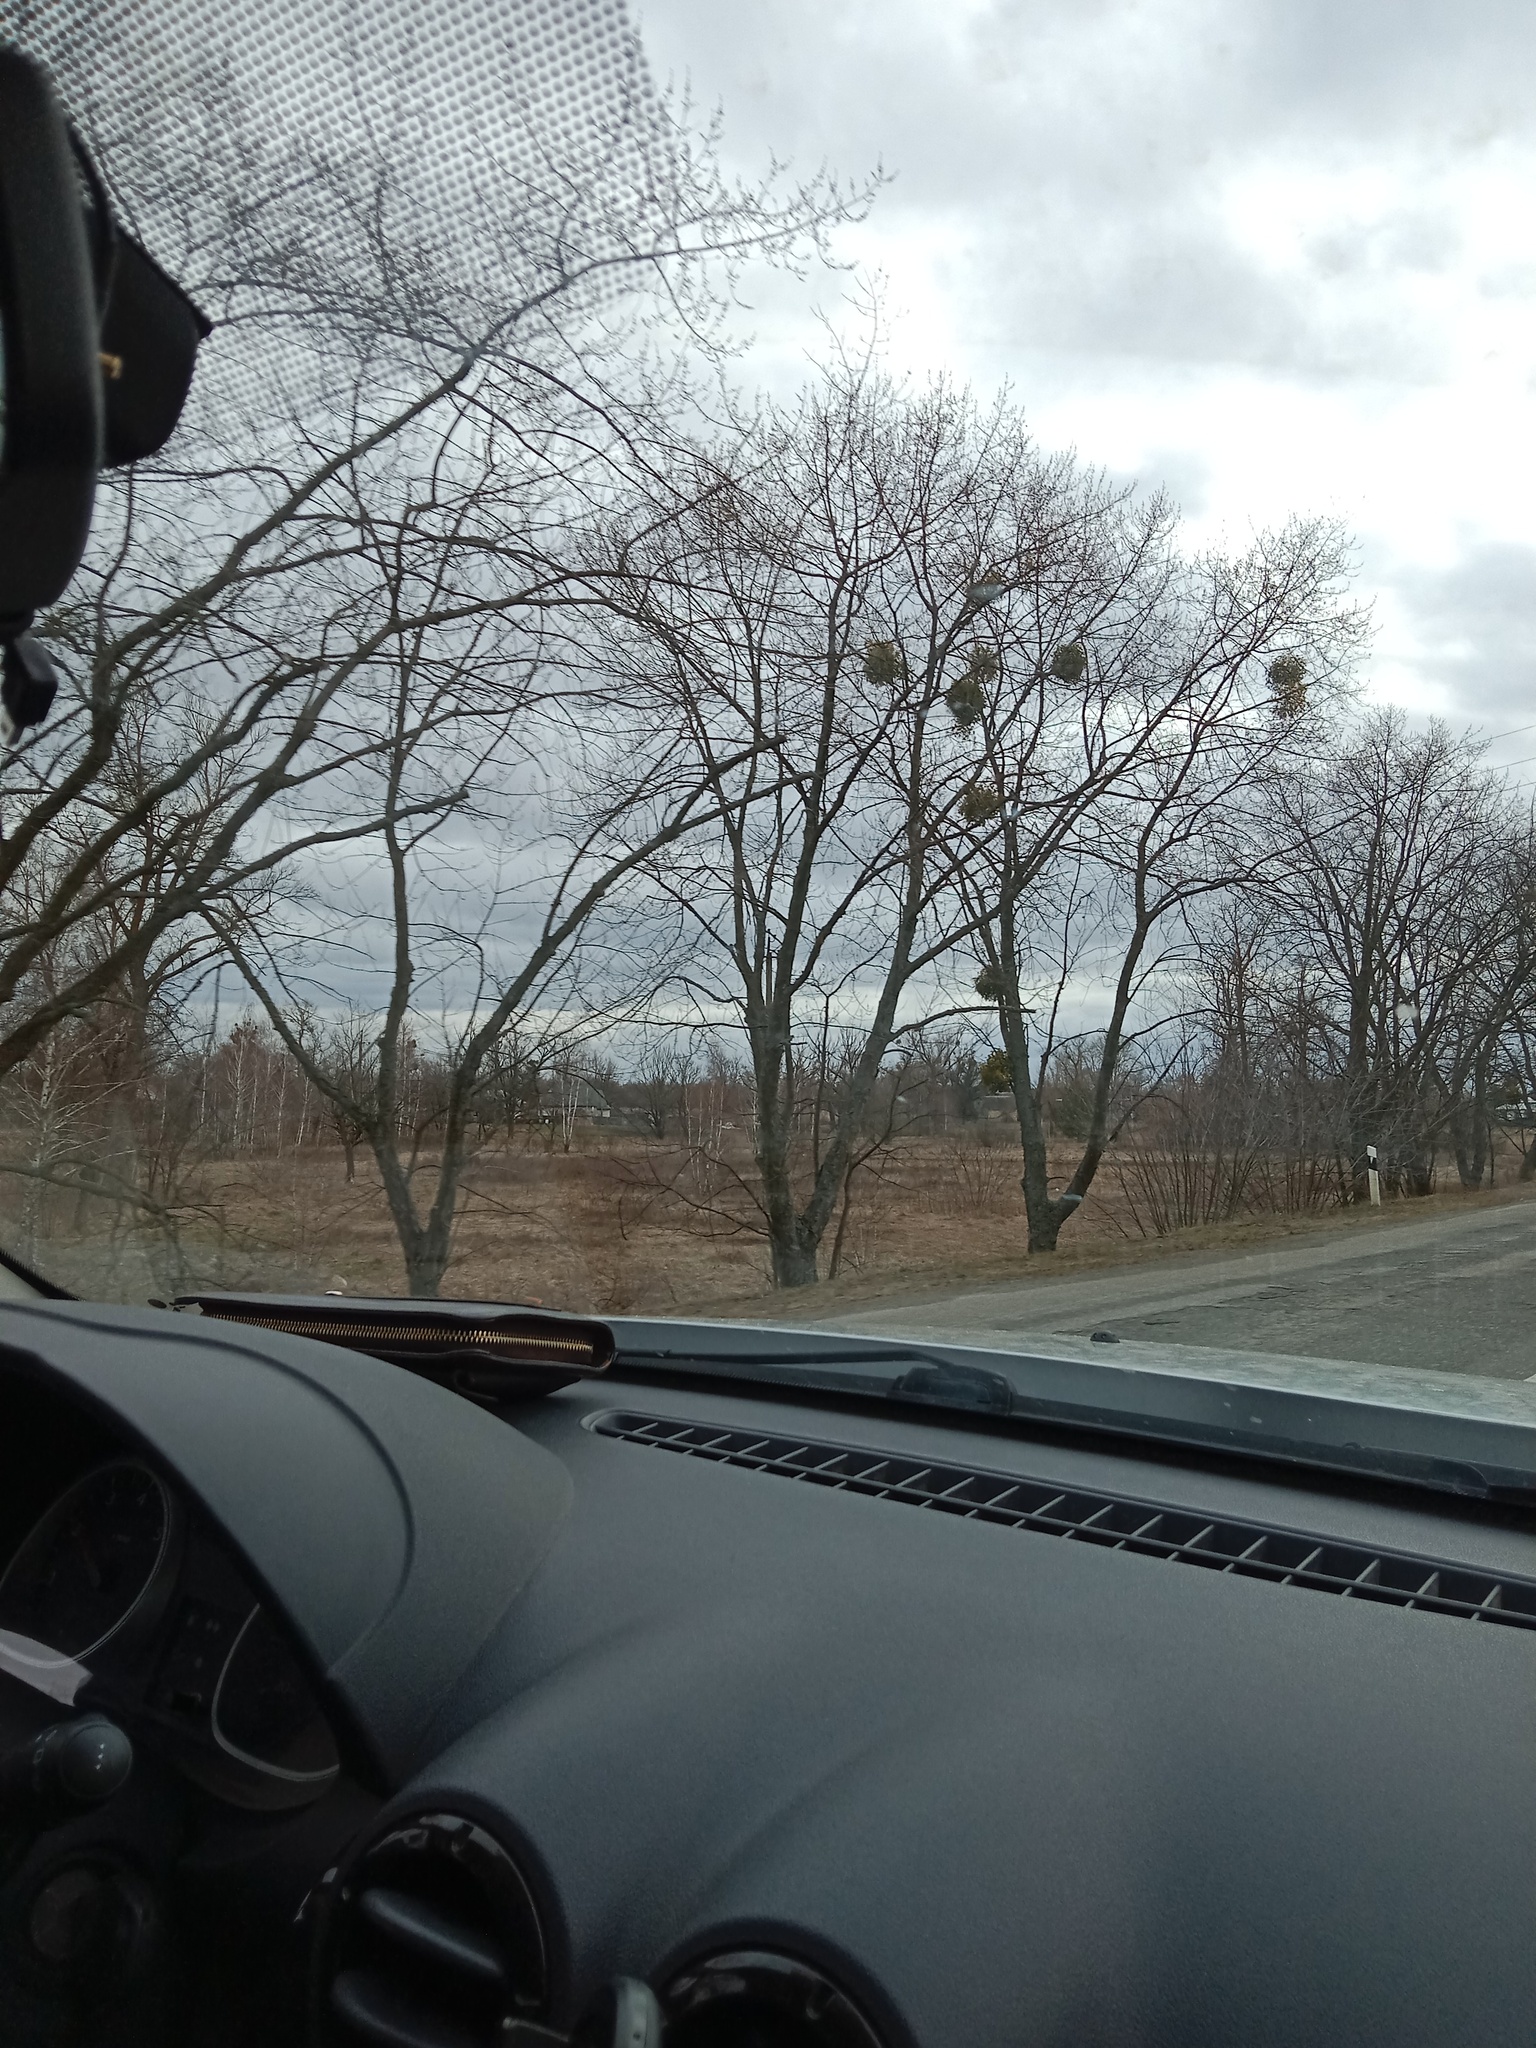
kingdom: Plantae
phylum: Tracheophyta
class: Magnoliopsida
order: Santalales
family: Viscaceae
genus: Viscum
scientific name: Viscum album
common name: Mistletoe
